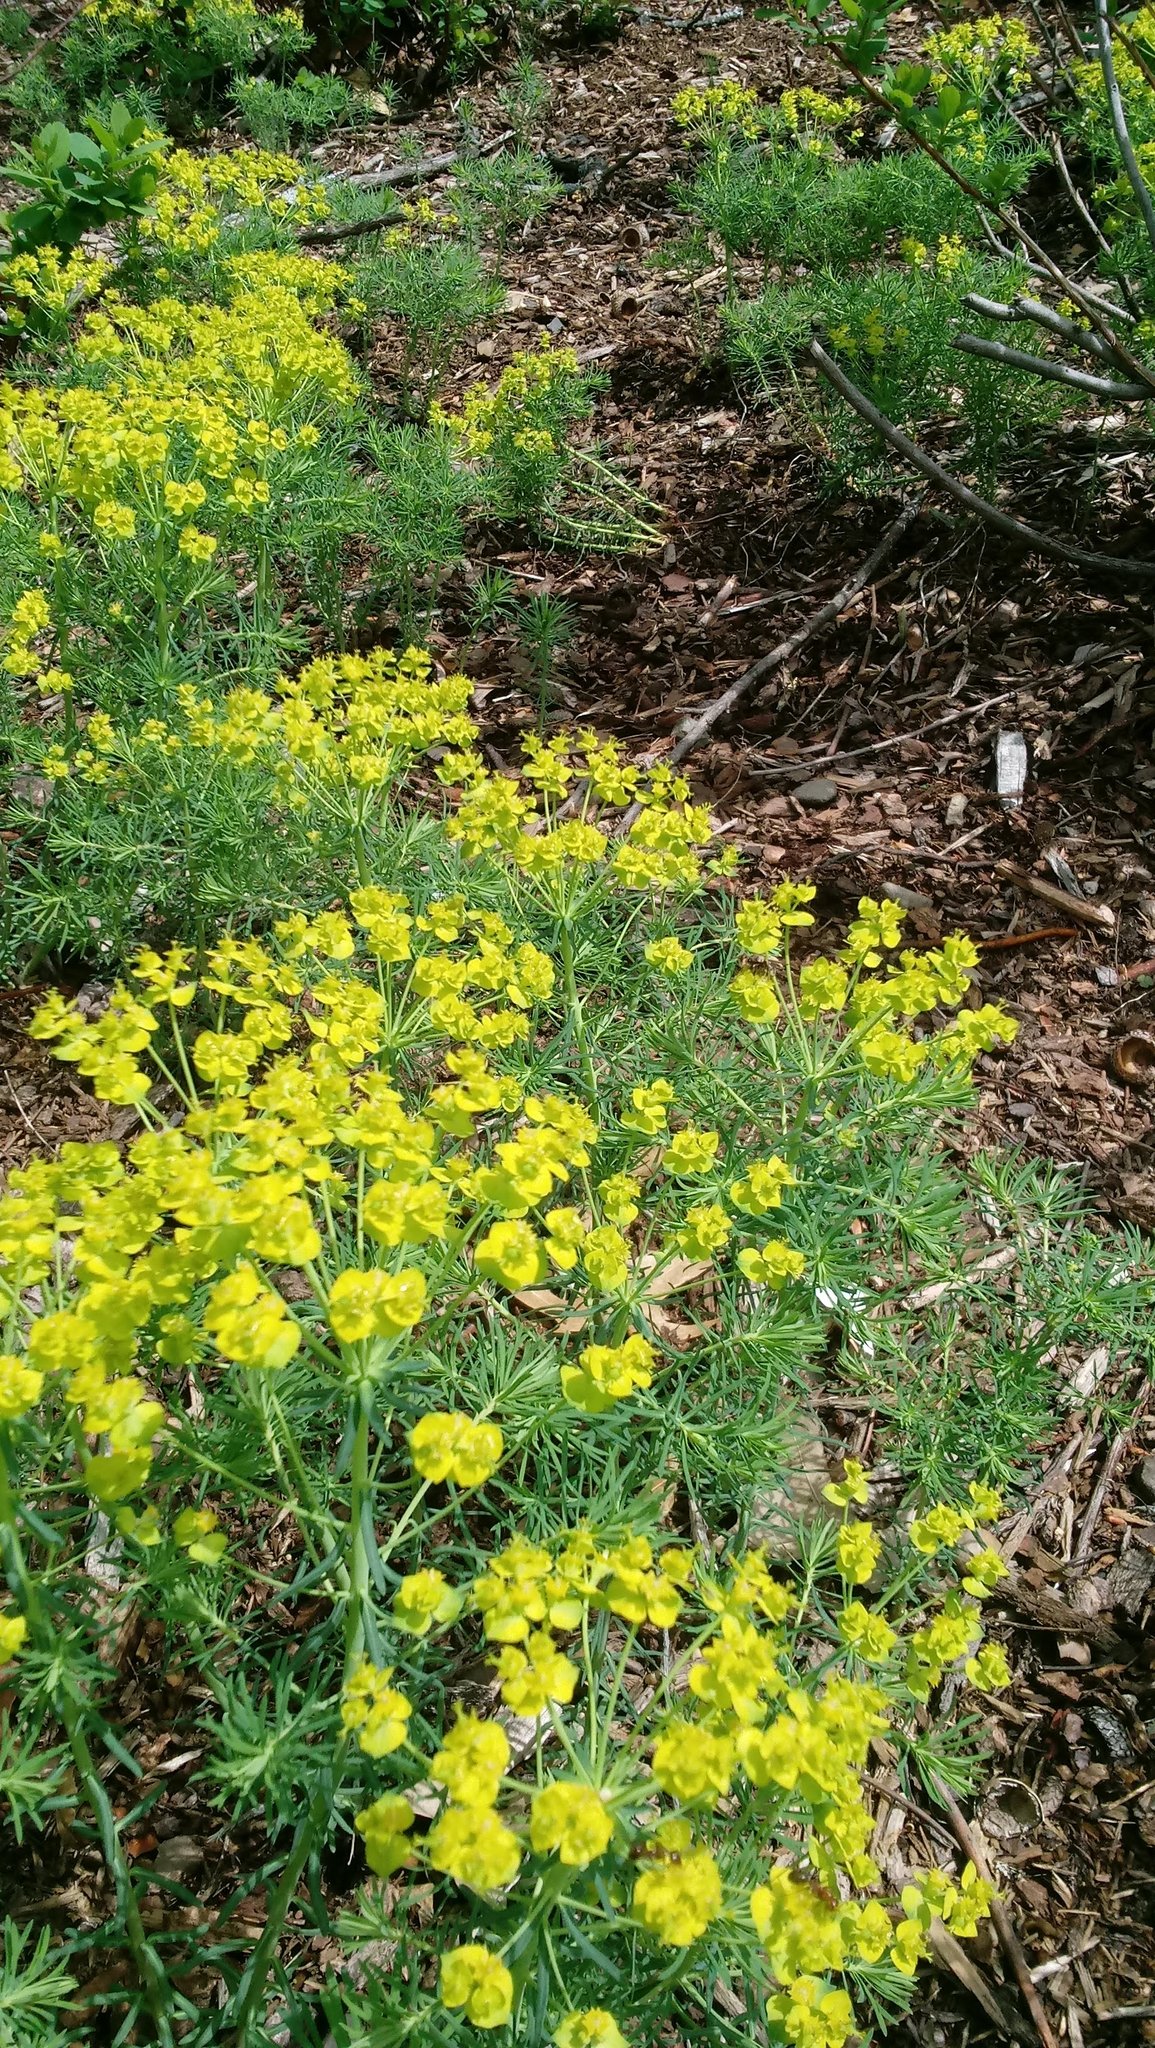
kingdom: Plantae
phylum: Tracheophyta
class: Magnoliopsida
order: Malpighiales
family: Euphorbiaceae
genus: Euphorbia
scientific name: Euphorbia cyparissias
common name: Cypress spurge
